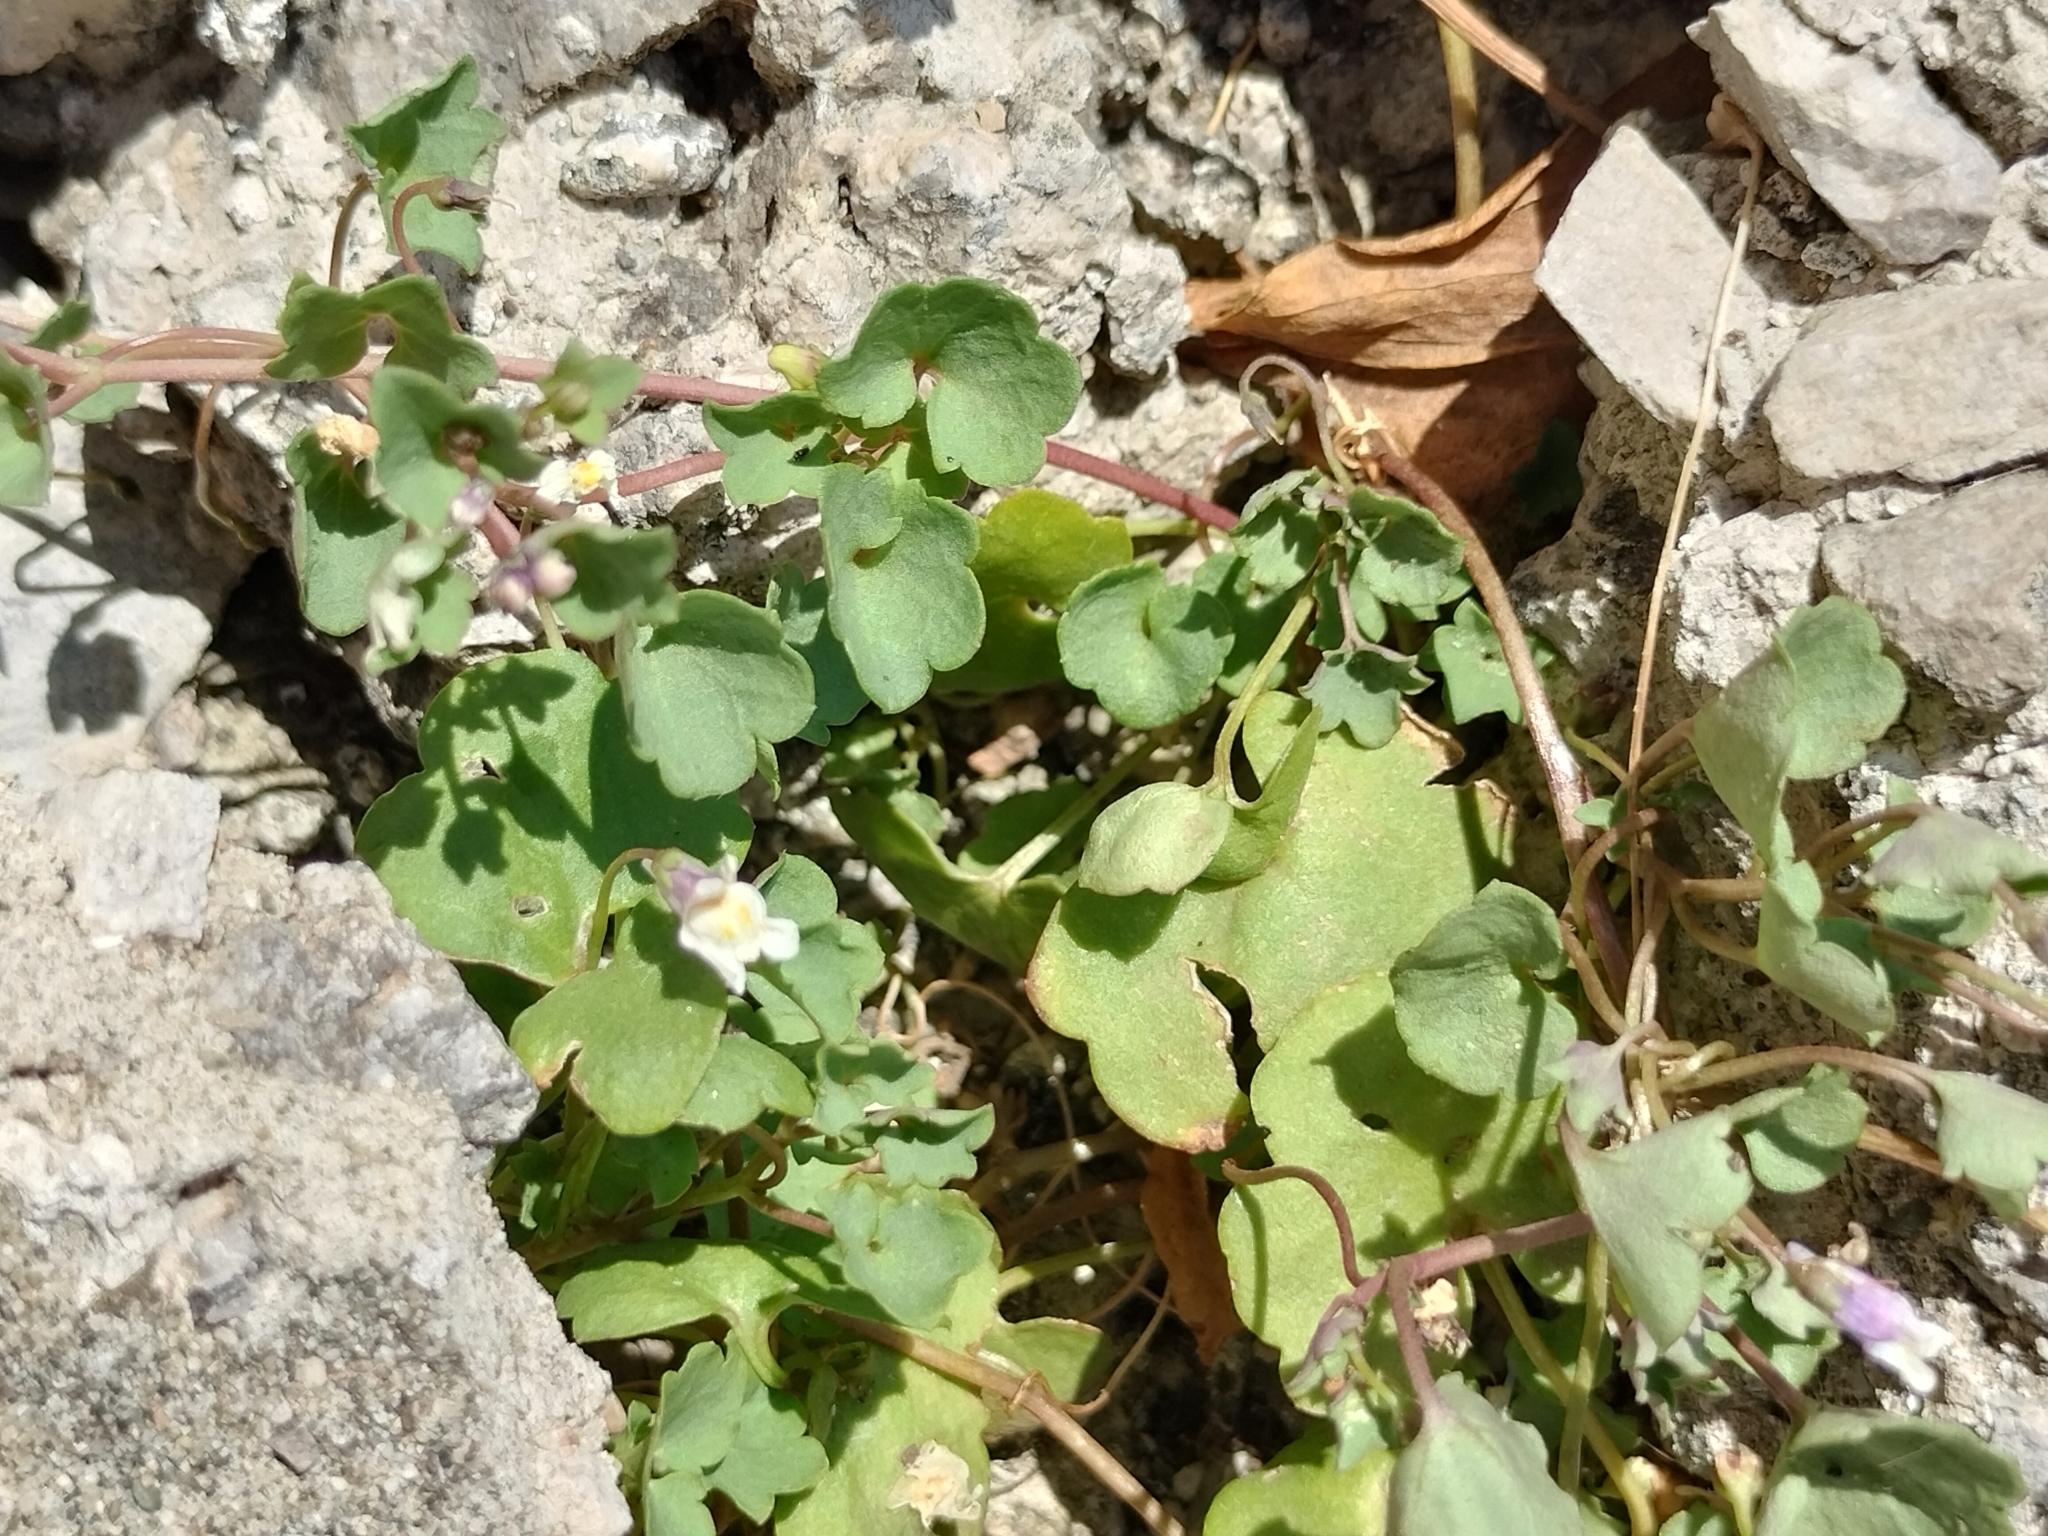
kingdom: Plantae
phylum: Tracheophyta
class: Magnoliopsida
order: Lamiales
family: Plantaginaceae
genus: Cymbalaria
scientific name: Cymbalaria muralis
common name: Ivy-leaved toadflax
